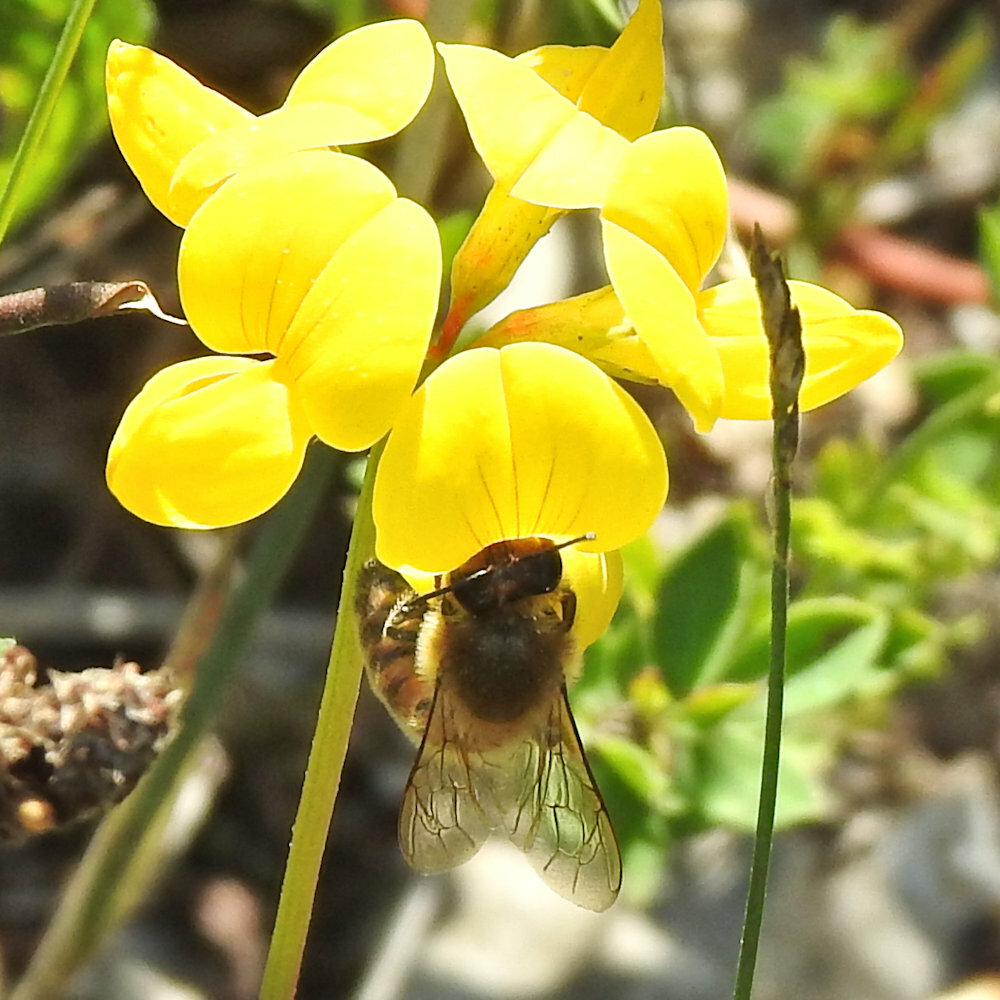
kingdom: Animalia
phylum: Arthropoda
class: Insecta
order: Hymenoptera
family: Apidae
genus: Apis
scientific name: Apis mellifera
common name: Honey bee
